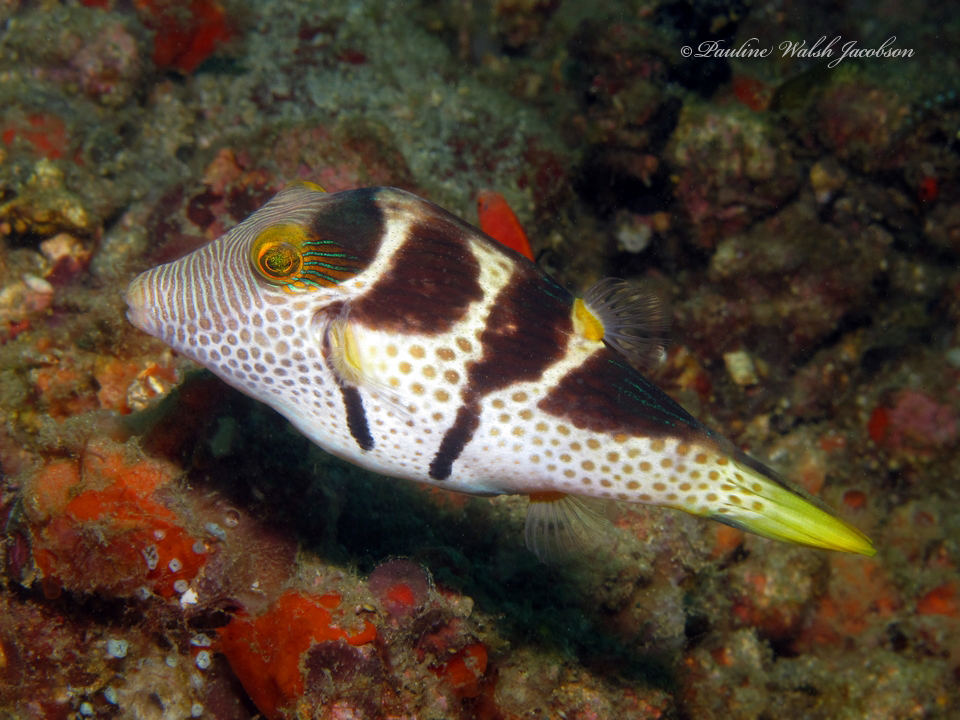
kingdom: Animalia
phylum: Chordata
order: Tetraodontiformes
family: Tetraodontidae
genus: Canthigaster
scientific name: Canthigaster valentini
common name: Banded toby
